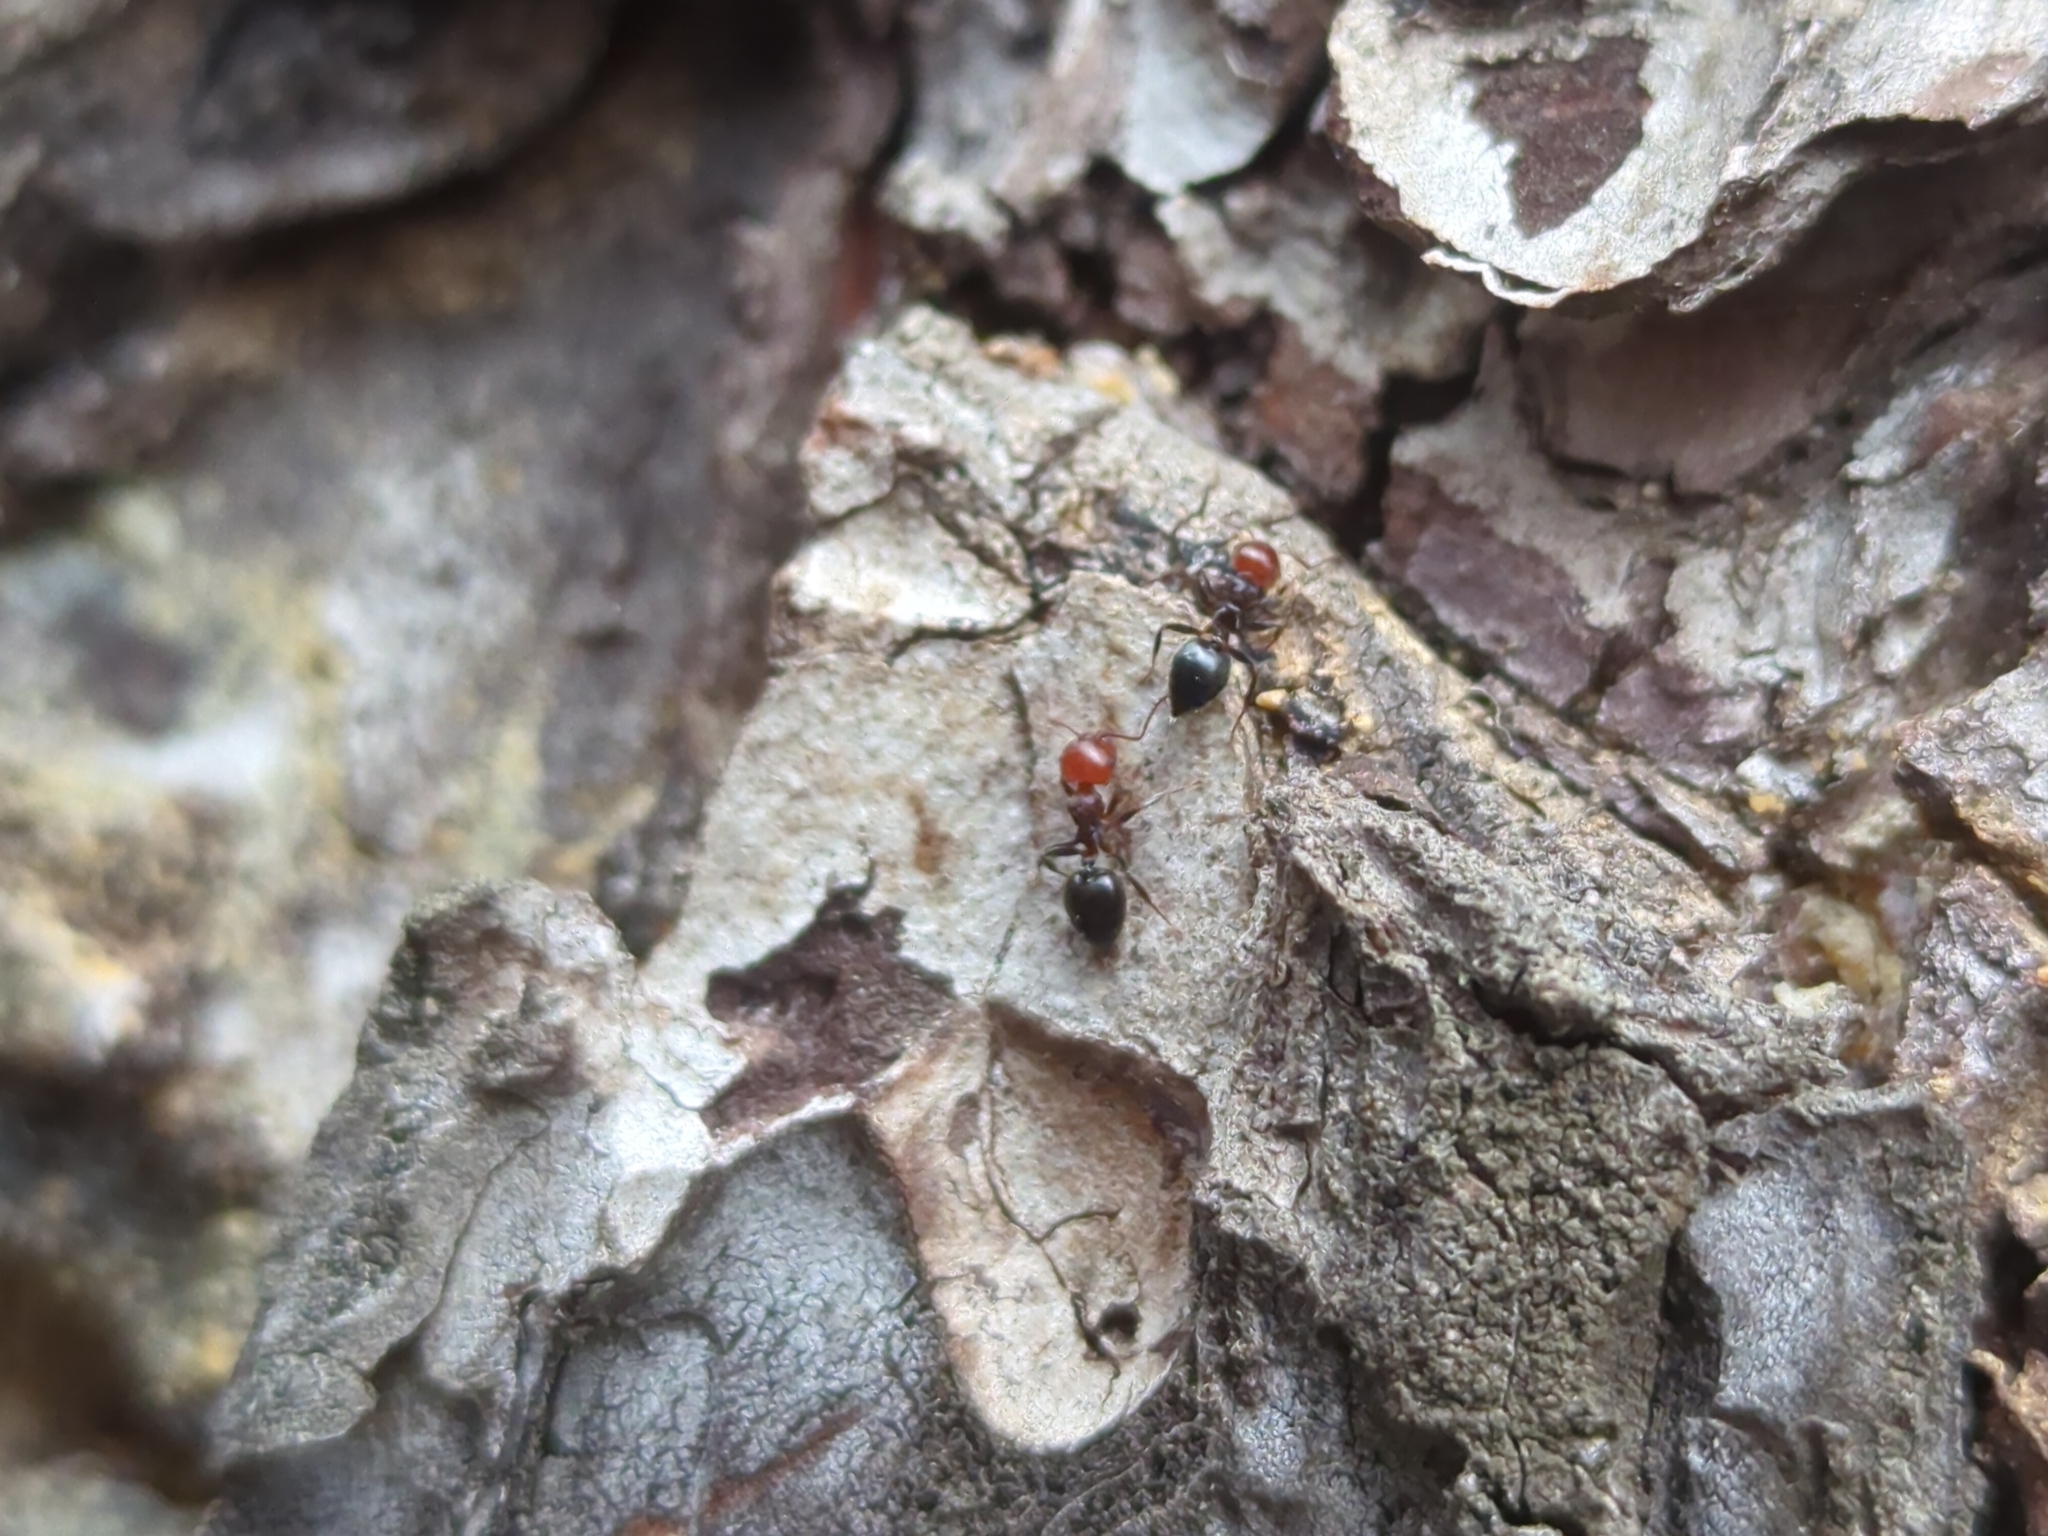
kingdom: Animalia
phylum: Arthropoda
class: Insecta
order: Hymenoptera
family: Formicidae
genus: Crematogaster
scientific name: Crematogaster scutellaris
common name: Fourmi du liège
